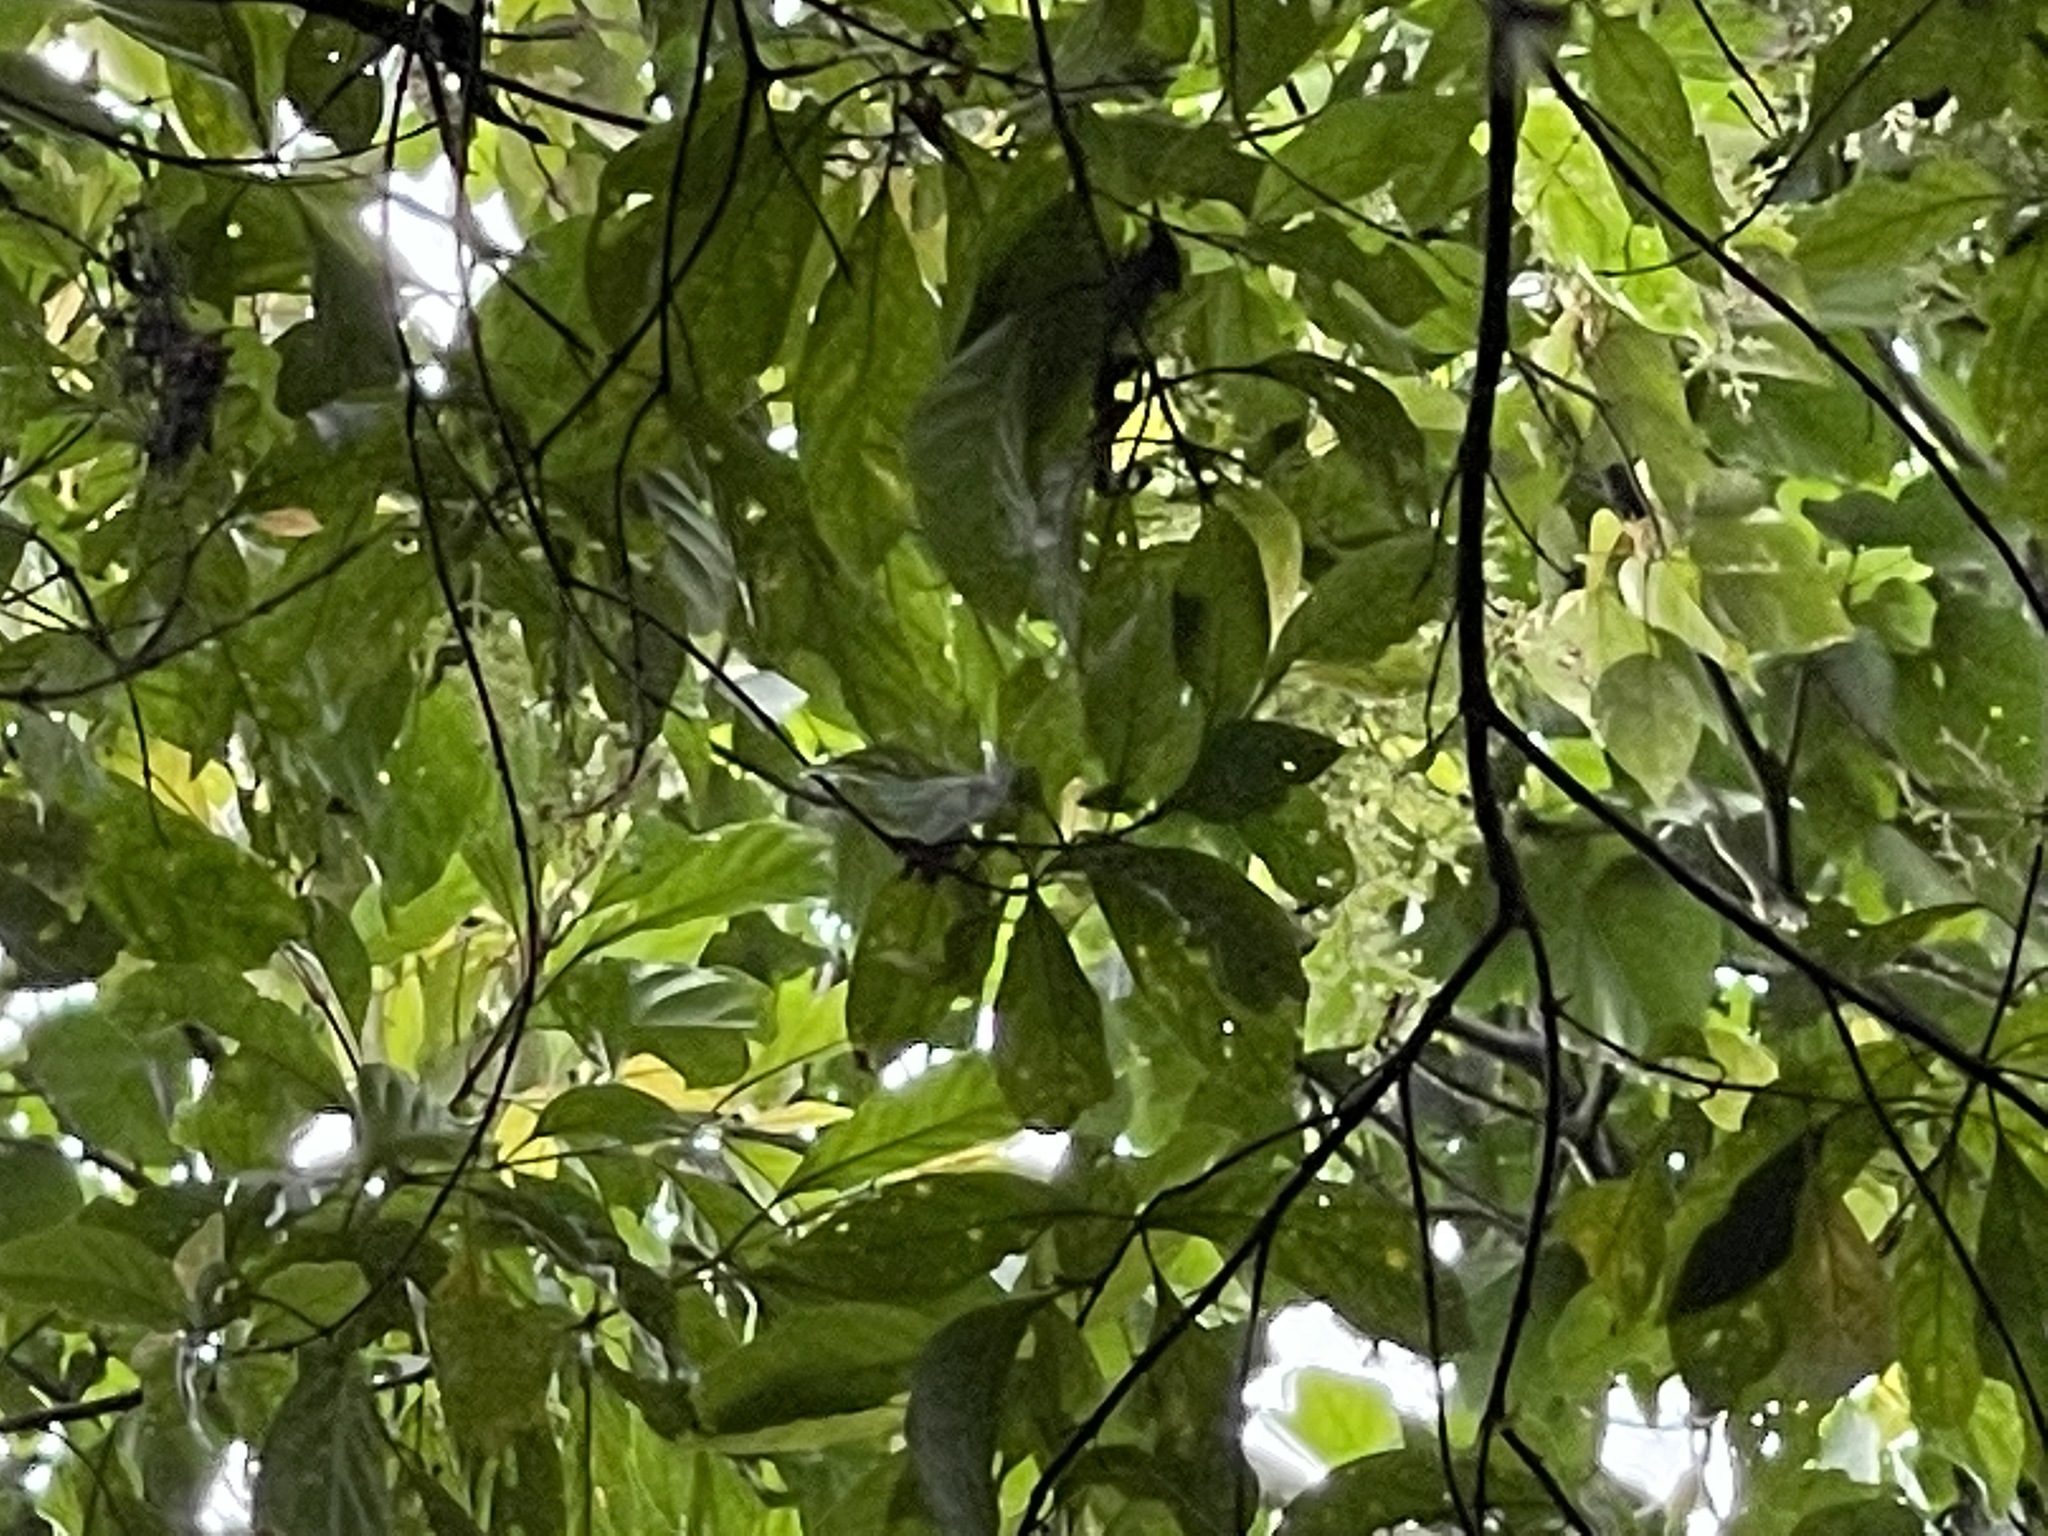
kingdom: Plantae
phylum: Tracheophyta
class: Magnoliopsida
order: Gentianales
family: Rubiaceae
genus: Wendlandia
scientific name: Wendlandia formosana
